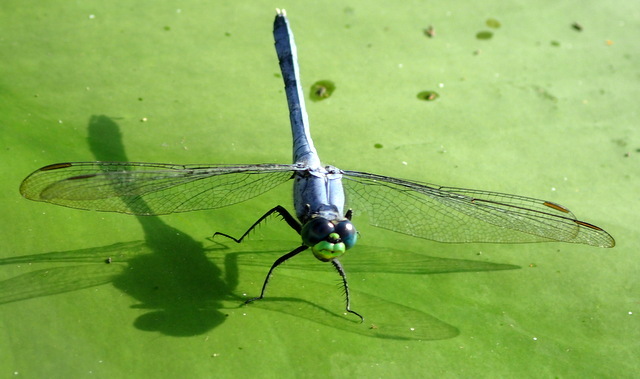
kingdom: Animalia
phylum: Arthropoda
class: Insecta
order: Odonata
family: Libellulidae
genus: Erythemis
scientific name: Erythemis simplicicollis
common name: Eastern pondhawk
